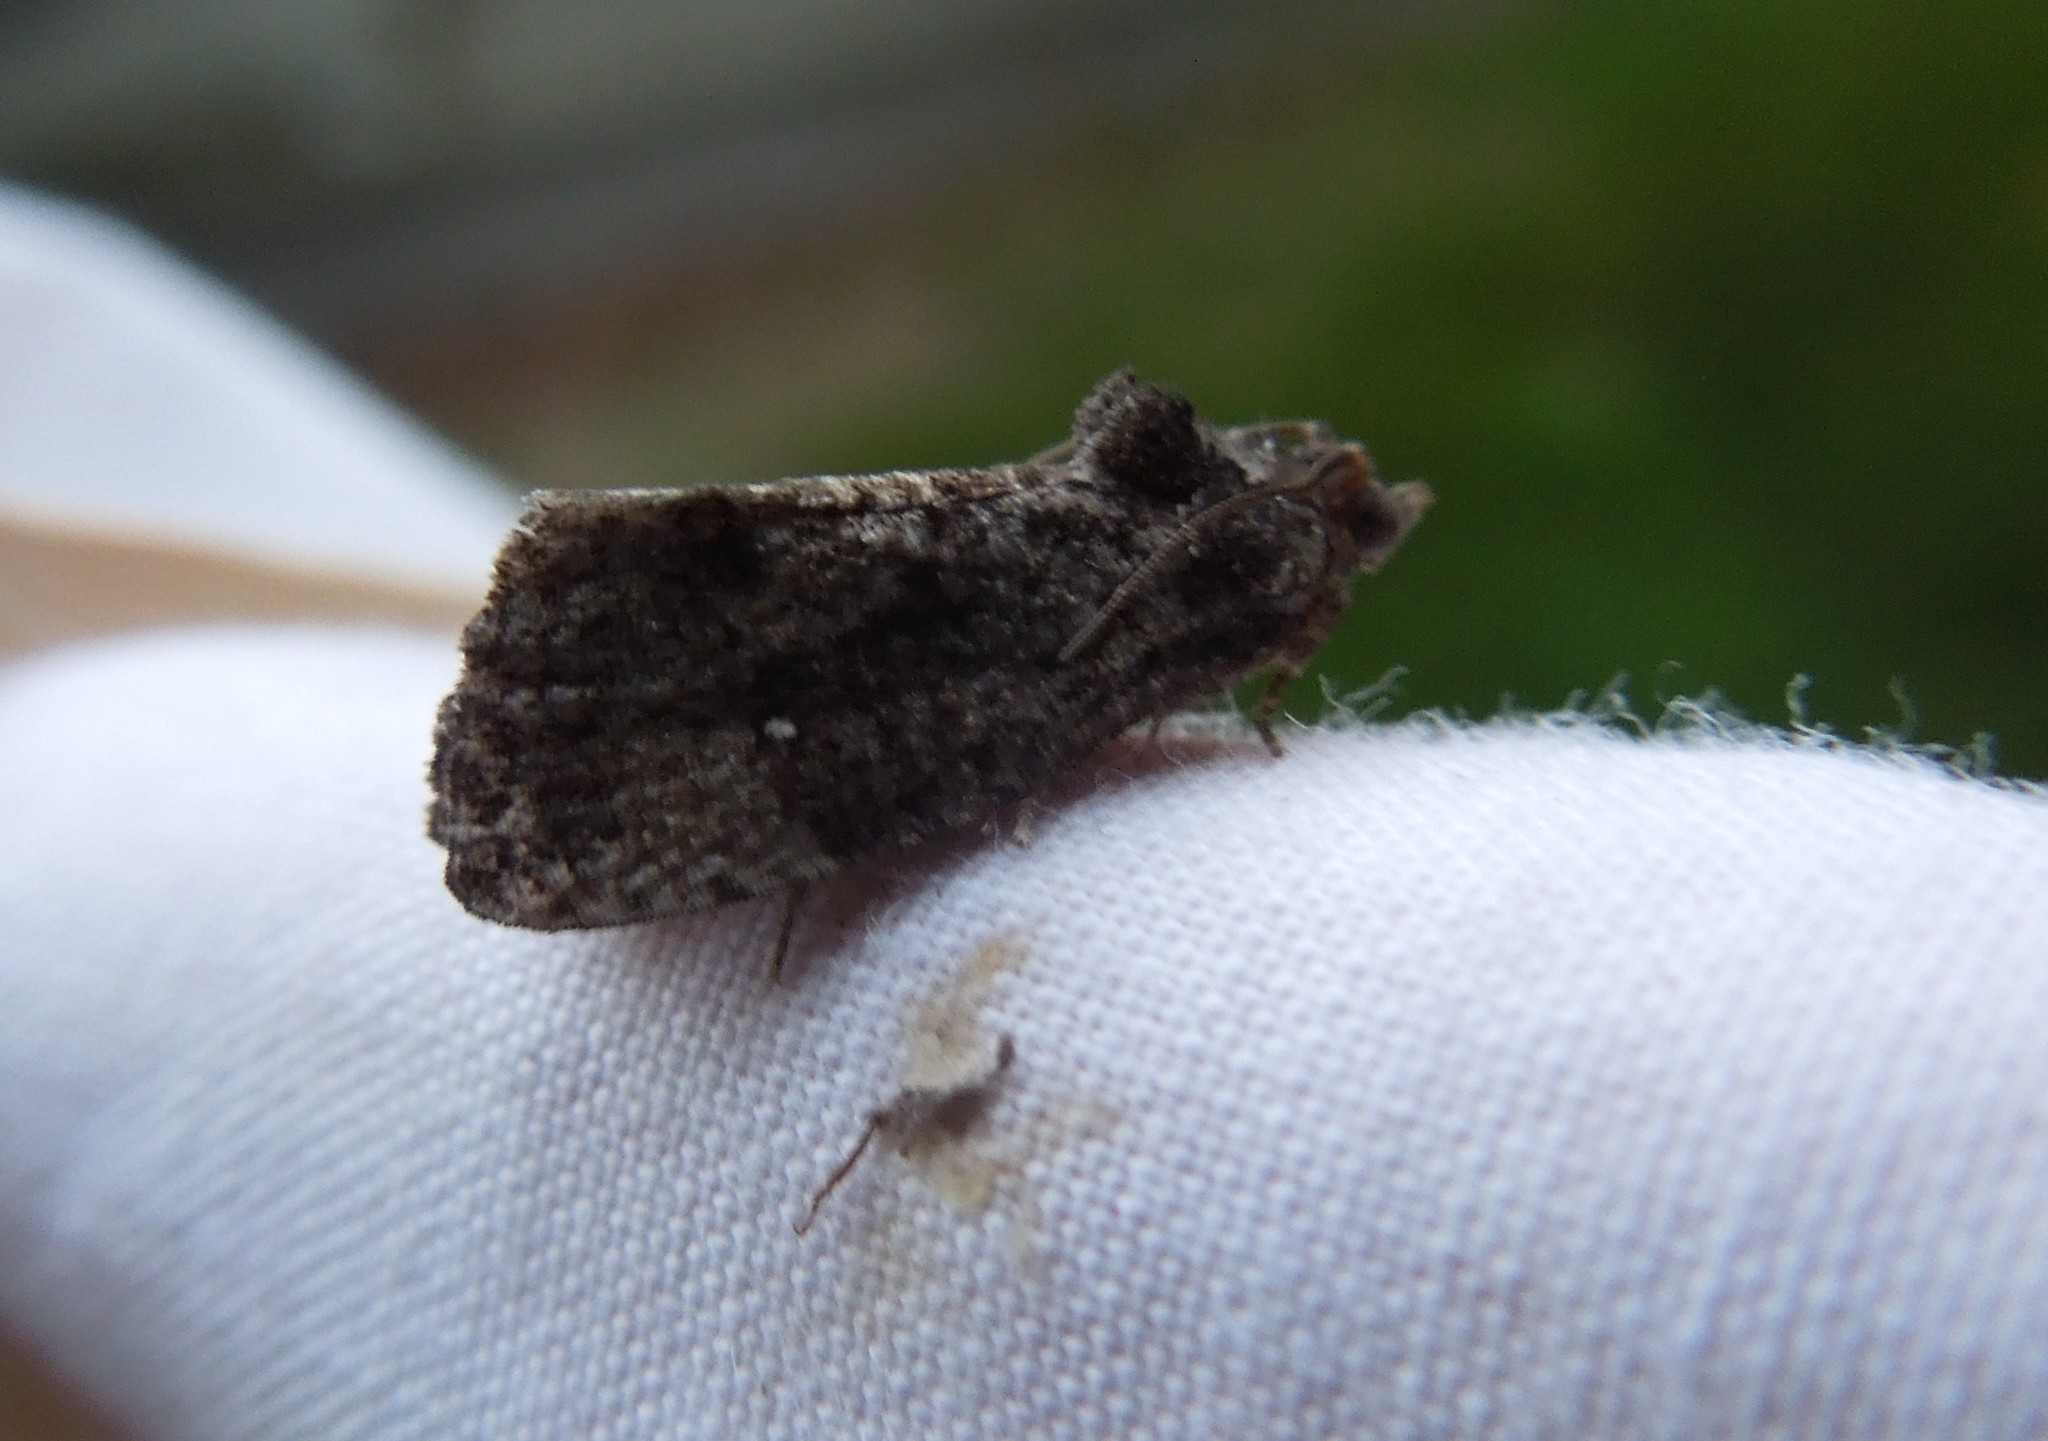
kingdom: Animalia
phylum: Arthropoda
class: Insecta
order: Lepidoptera
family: Tortricidae
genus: Gymnandrosoma
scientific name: Gymnandrosoma punctidiscanum
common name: Dotted ecdytolopha moth
